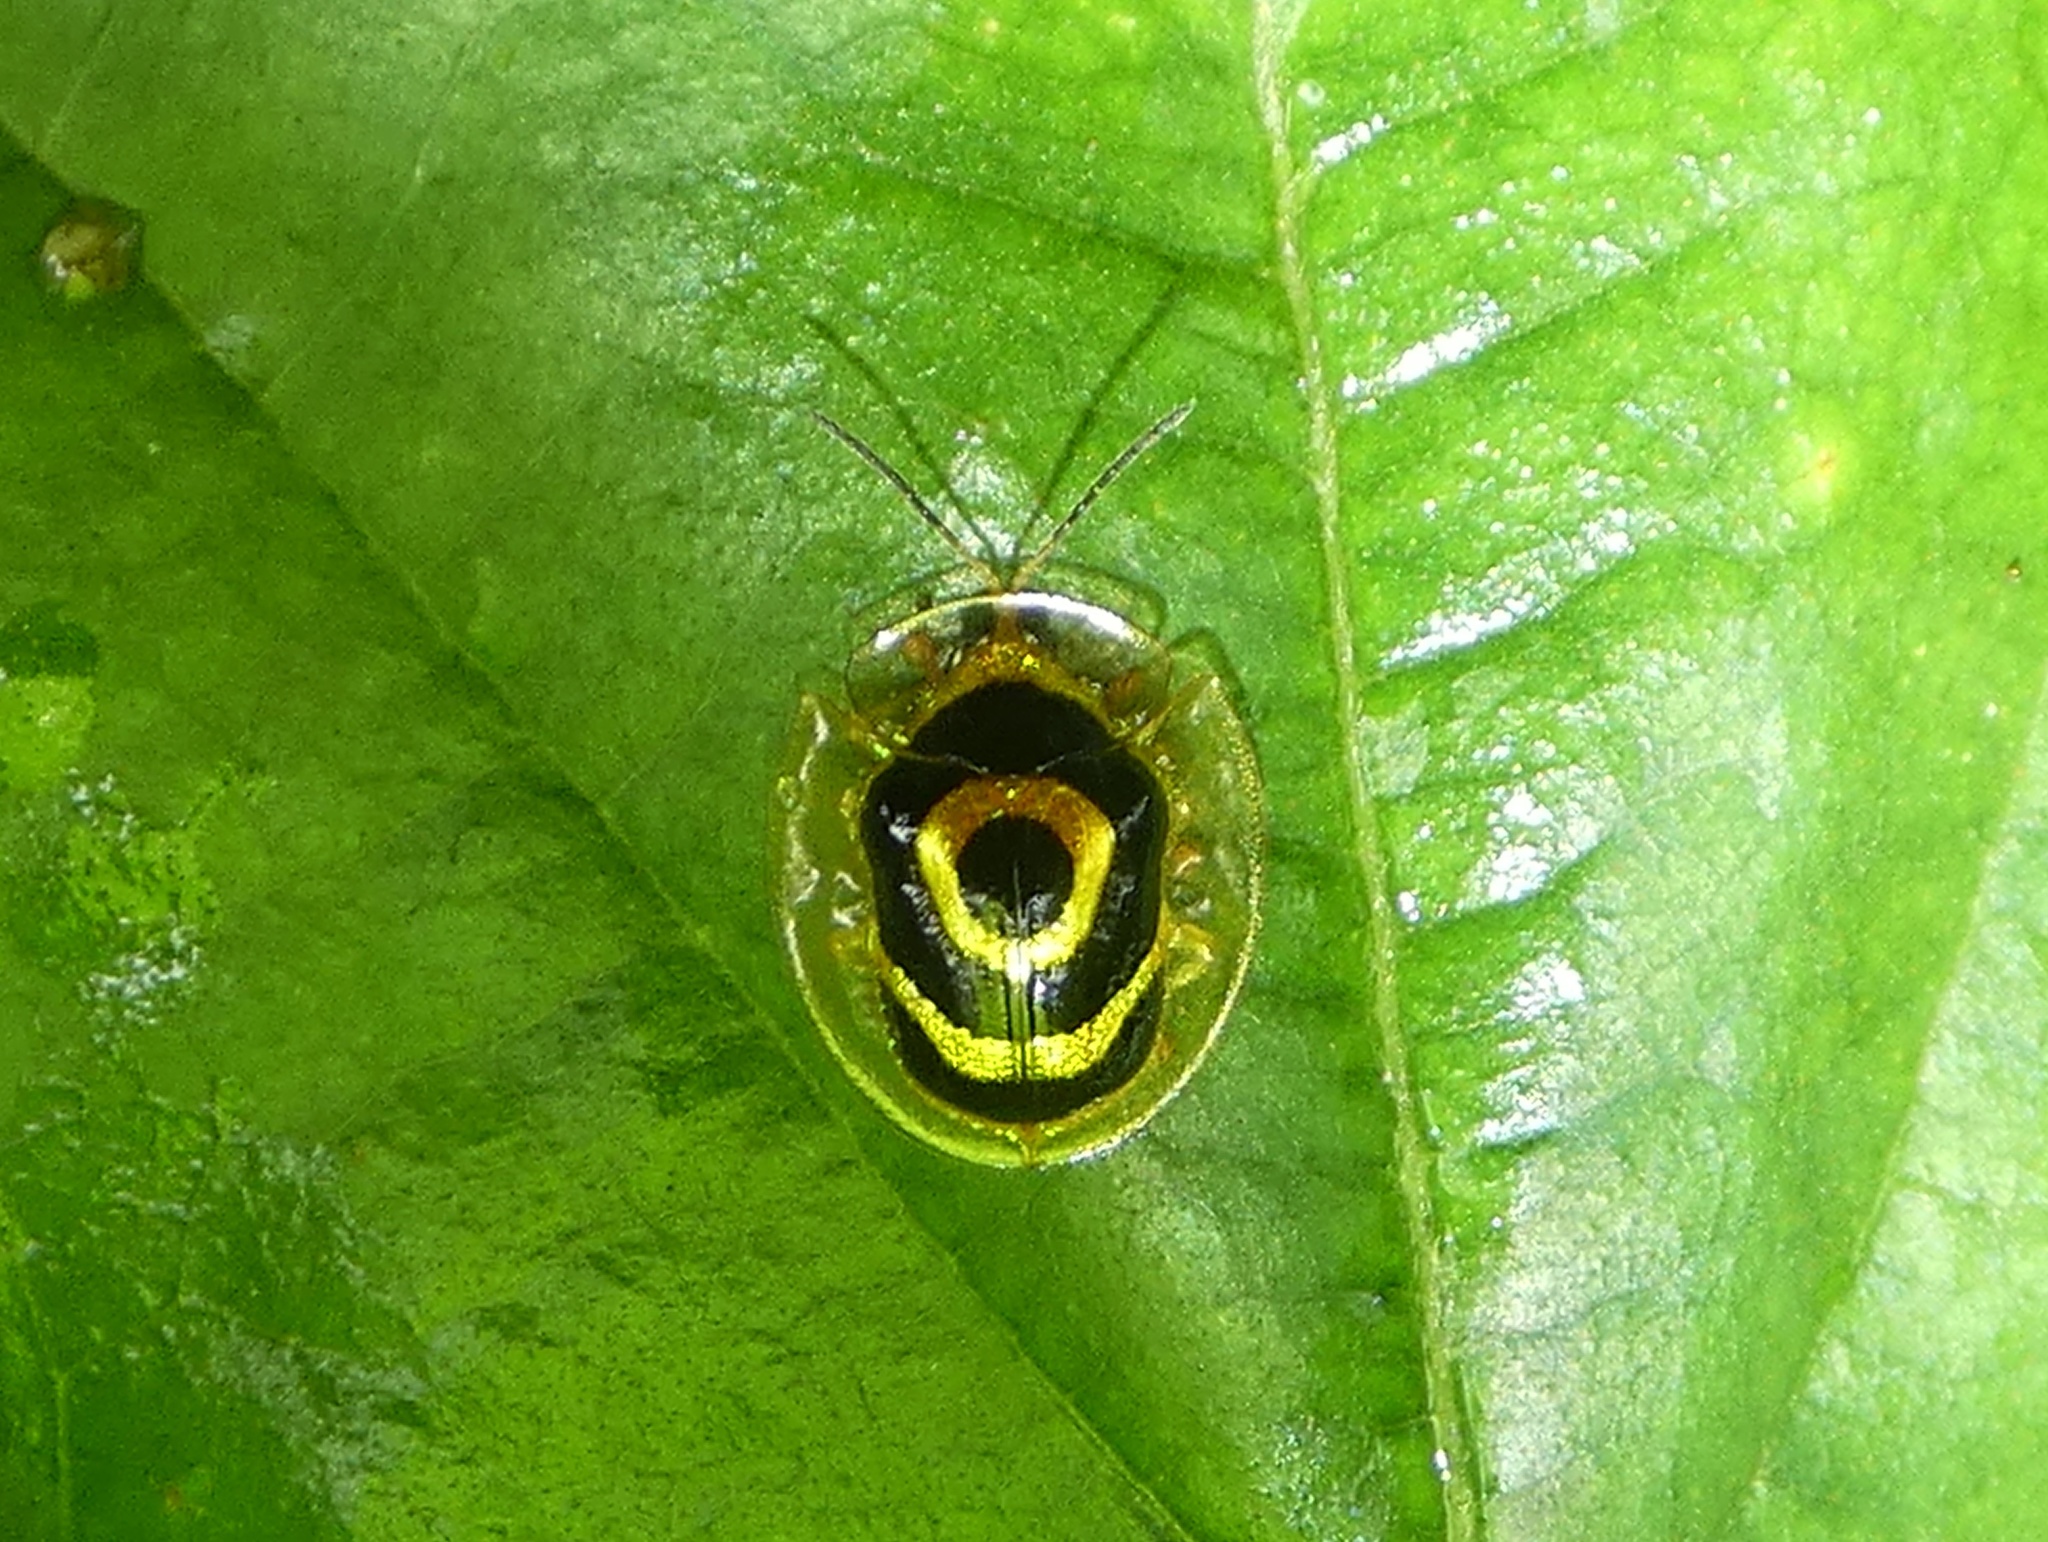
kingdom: Animalia
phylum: Arthropoda
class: Insecta
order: Coleoptera
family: Chrysomelidae
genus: Ischnocodia
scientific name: Ischnocodia annulus
